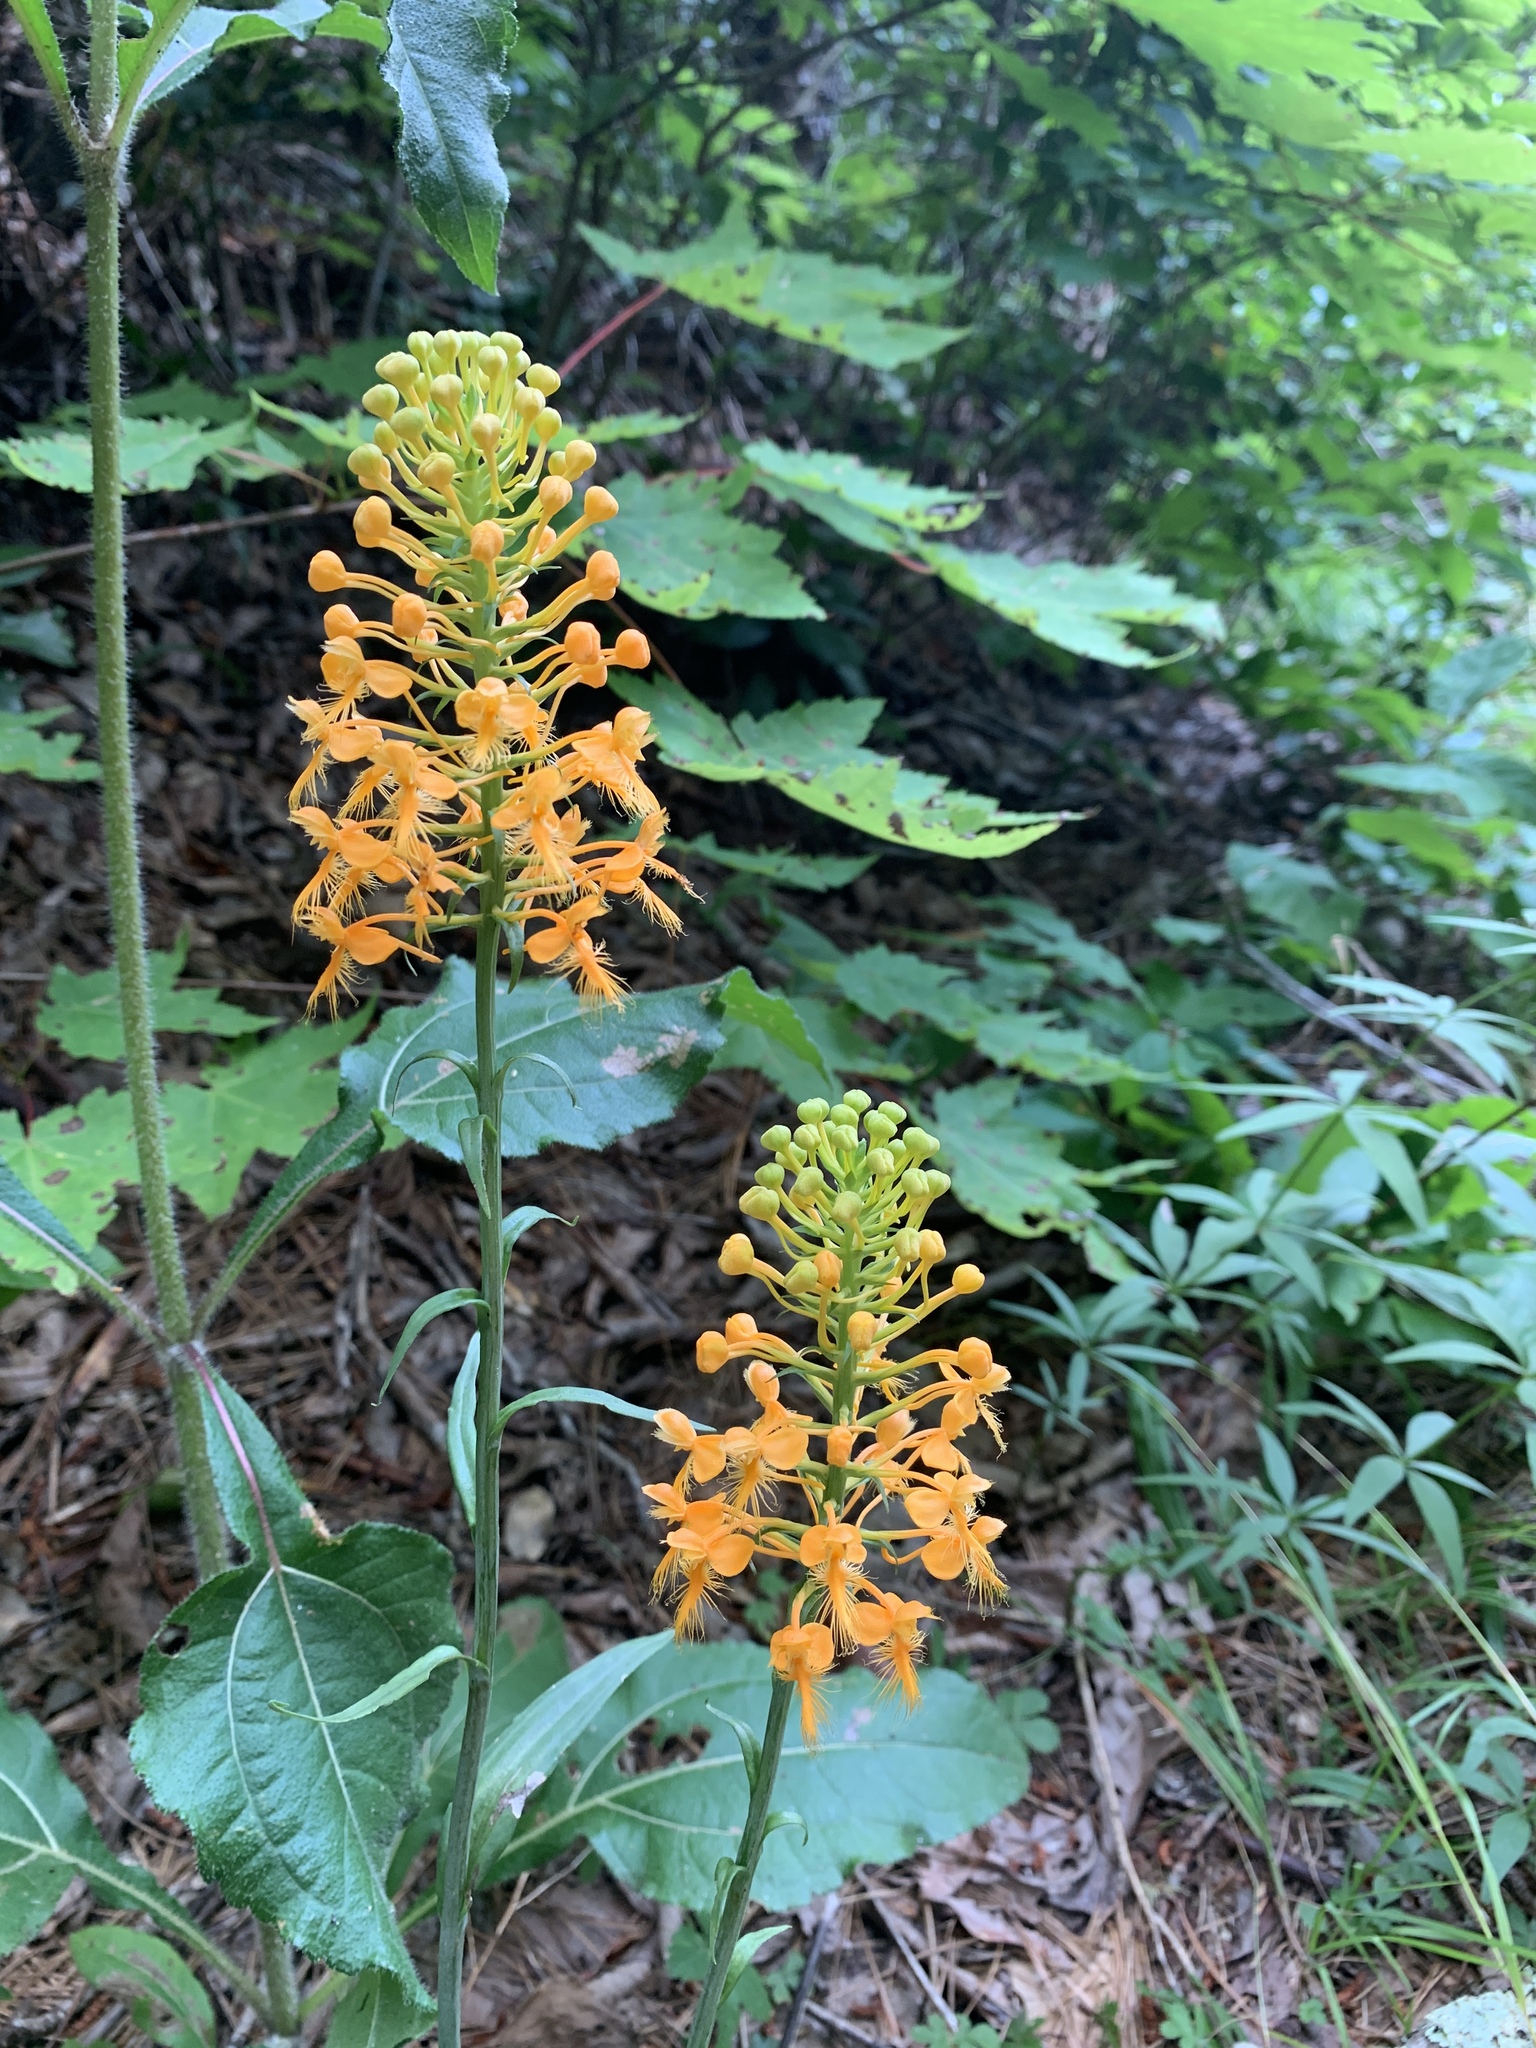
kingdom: Plantae
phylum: Tracheophyta
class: Liliopsida
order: Asparagales
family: Orchidaceae
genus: Platanthera
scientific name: Platanthera ciliaris
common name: Yellow fringed orchid
